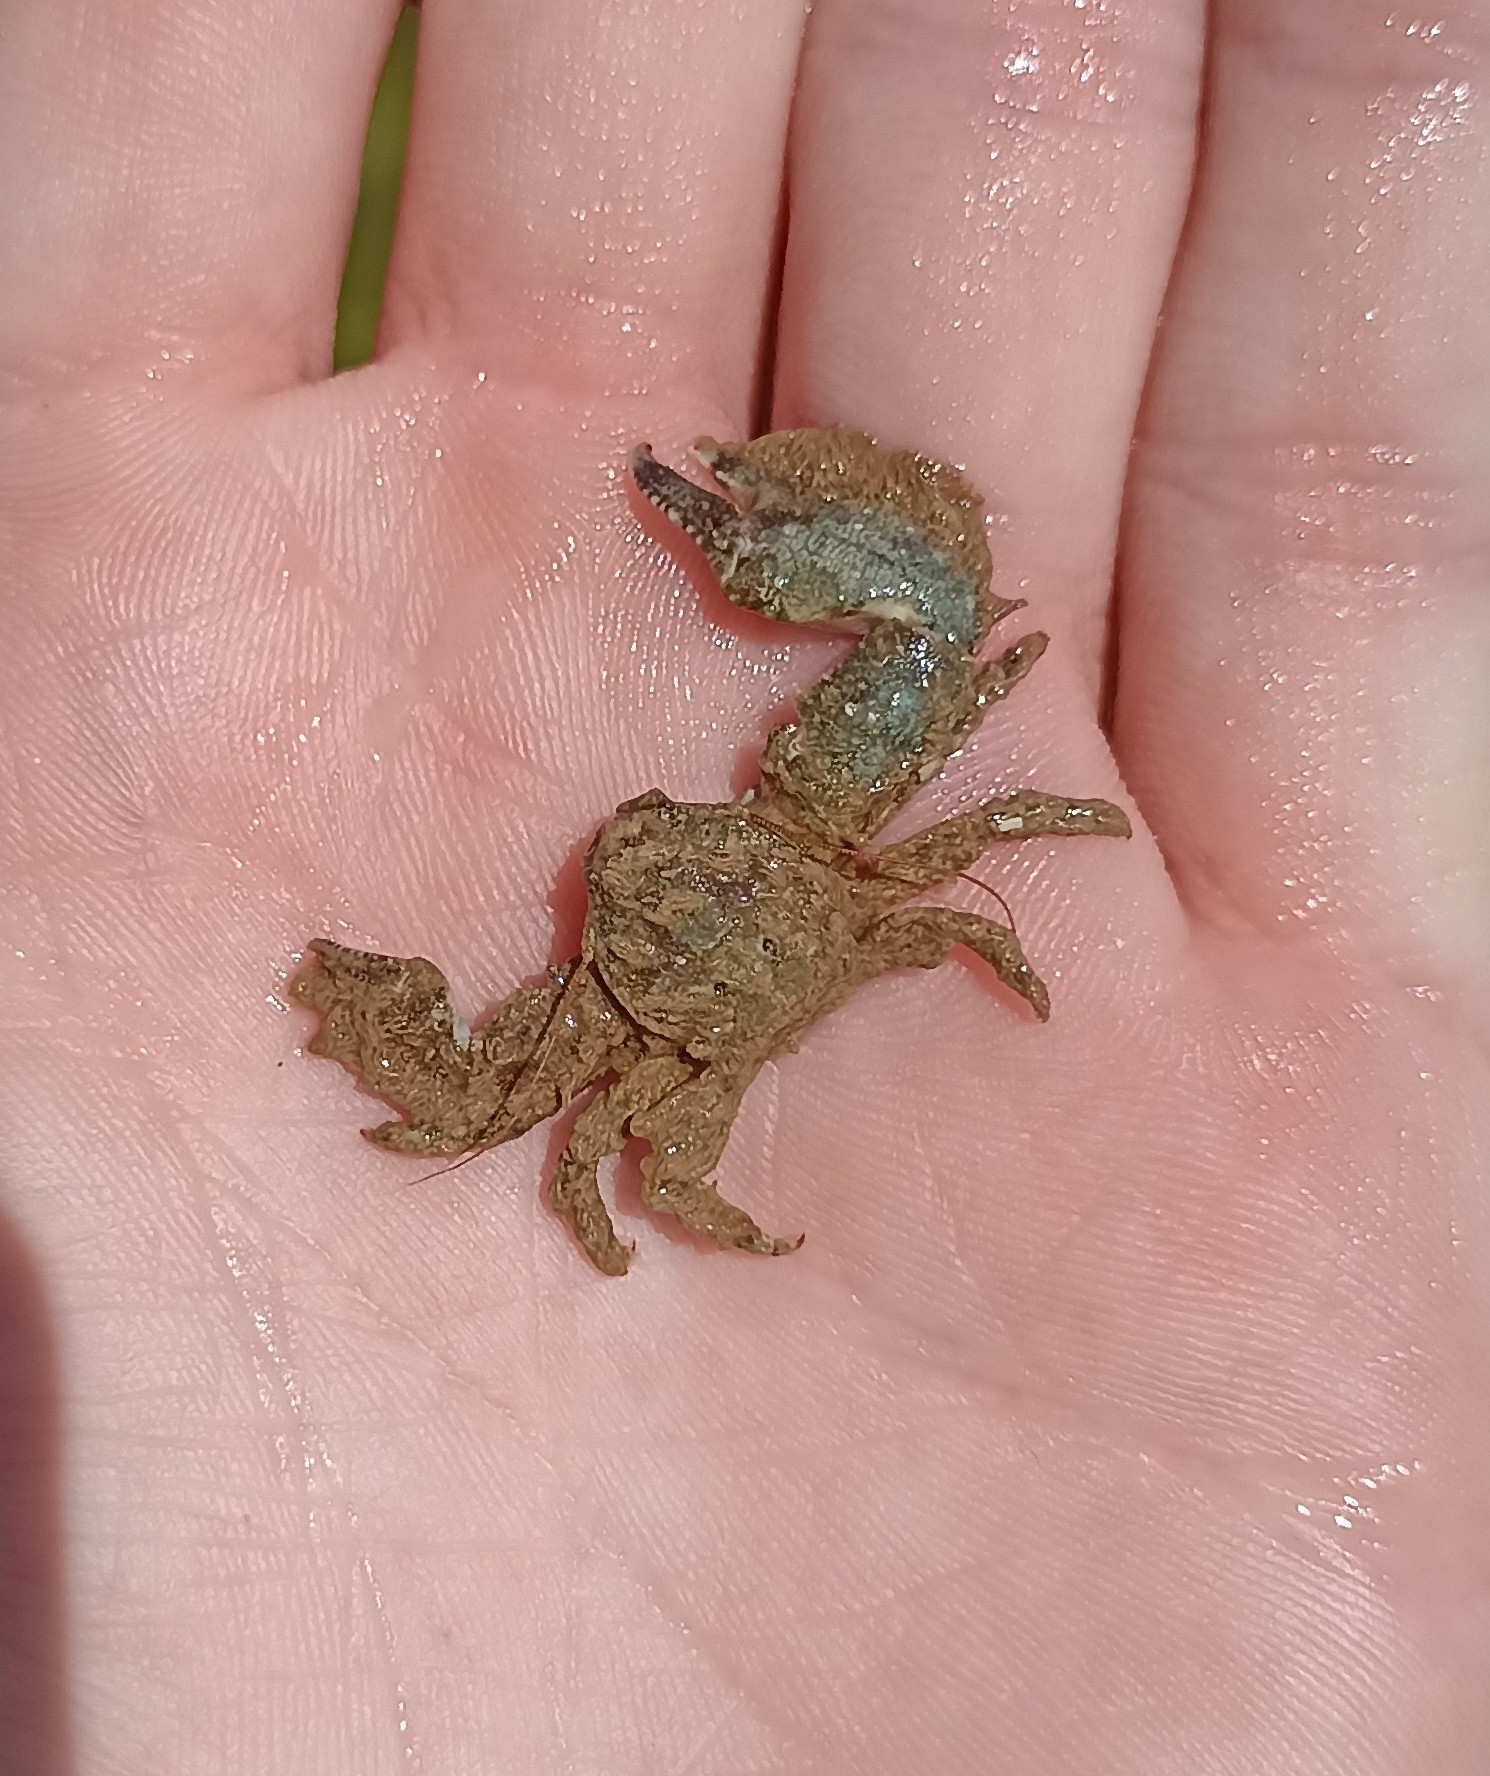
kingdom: Animalia
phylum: Arthropoda
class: Malacostraca
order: Decapoda
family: Porcellanidae
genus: Porcellana
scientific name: Porcellana platycheles
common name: Porcelain crab
